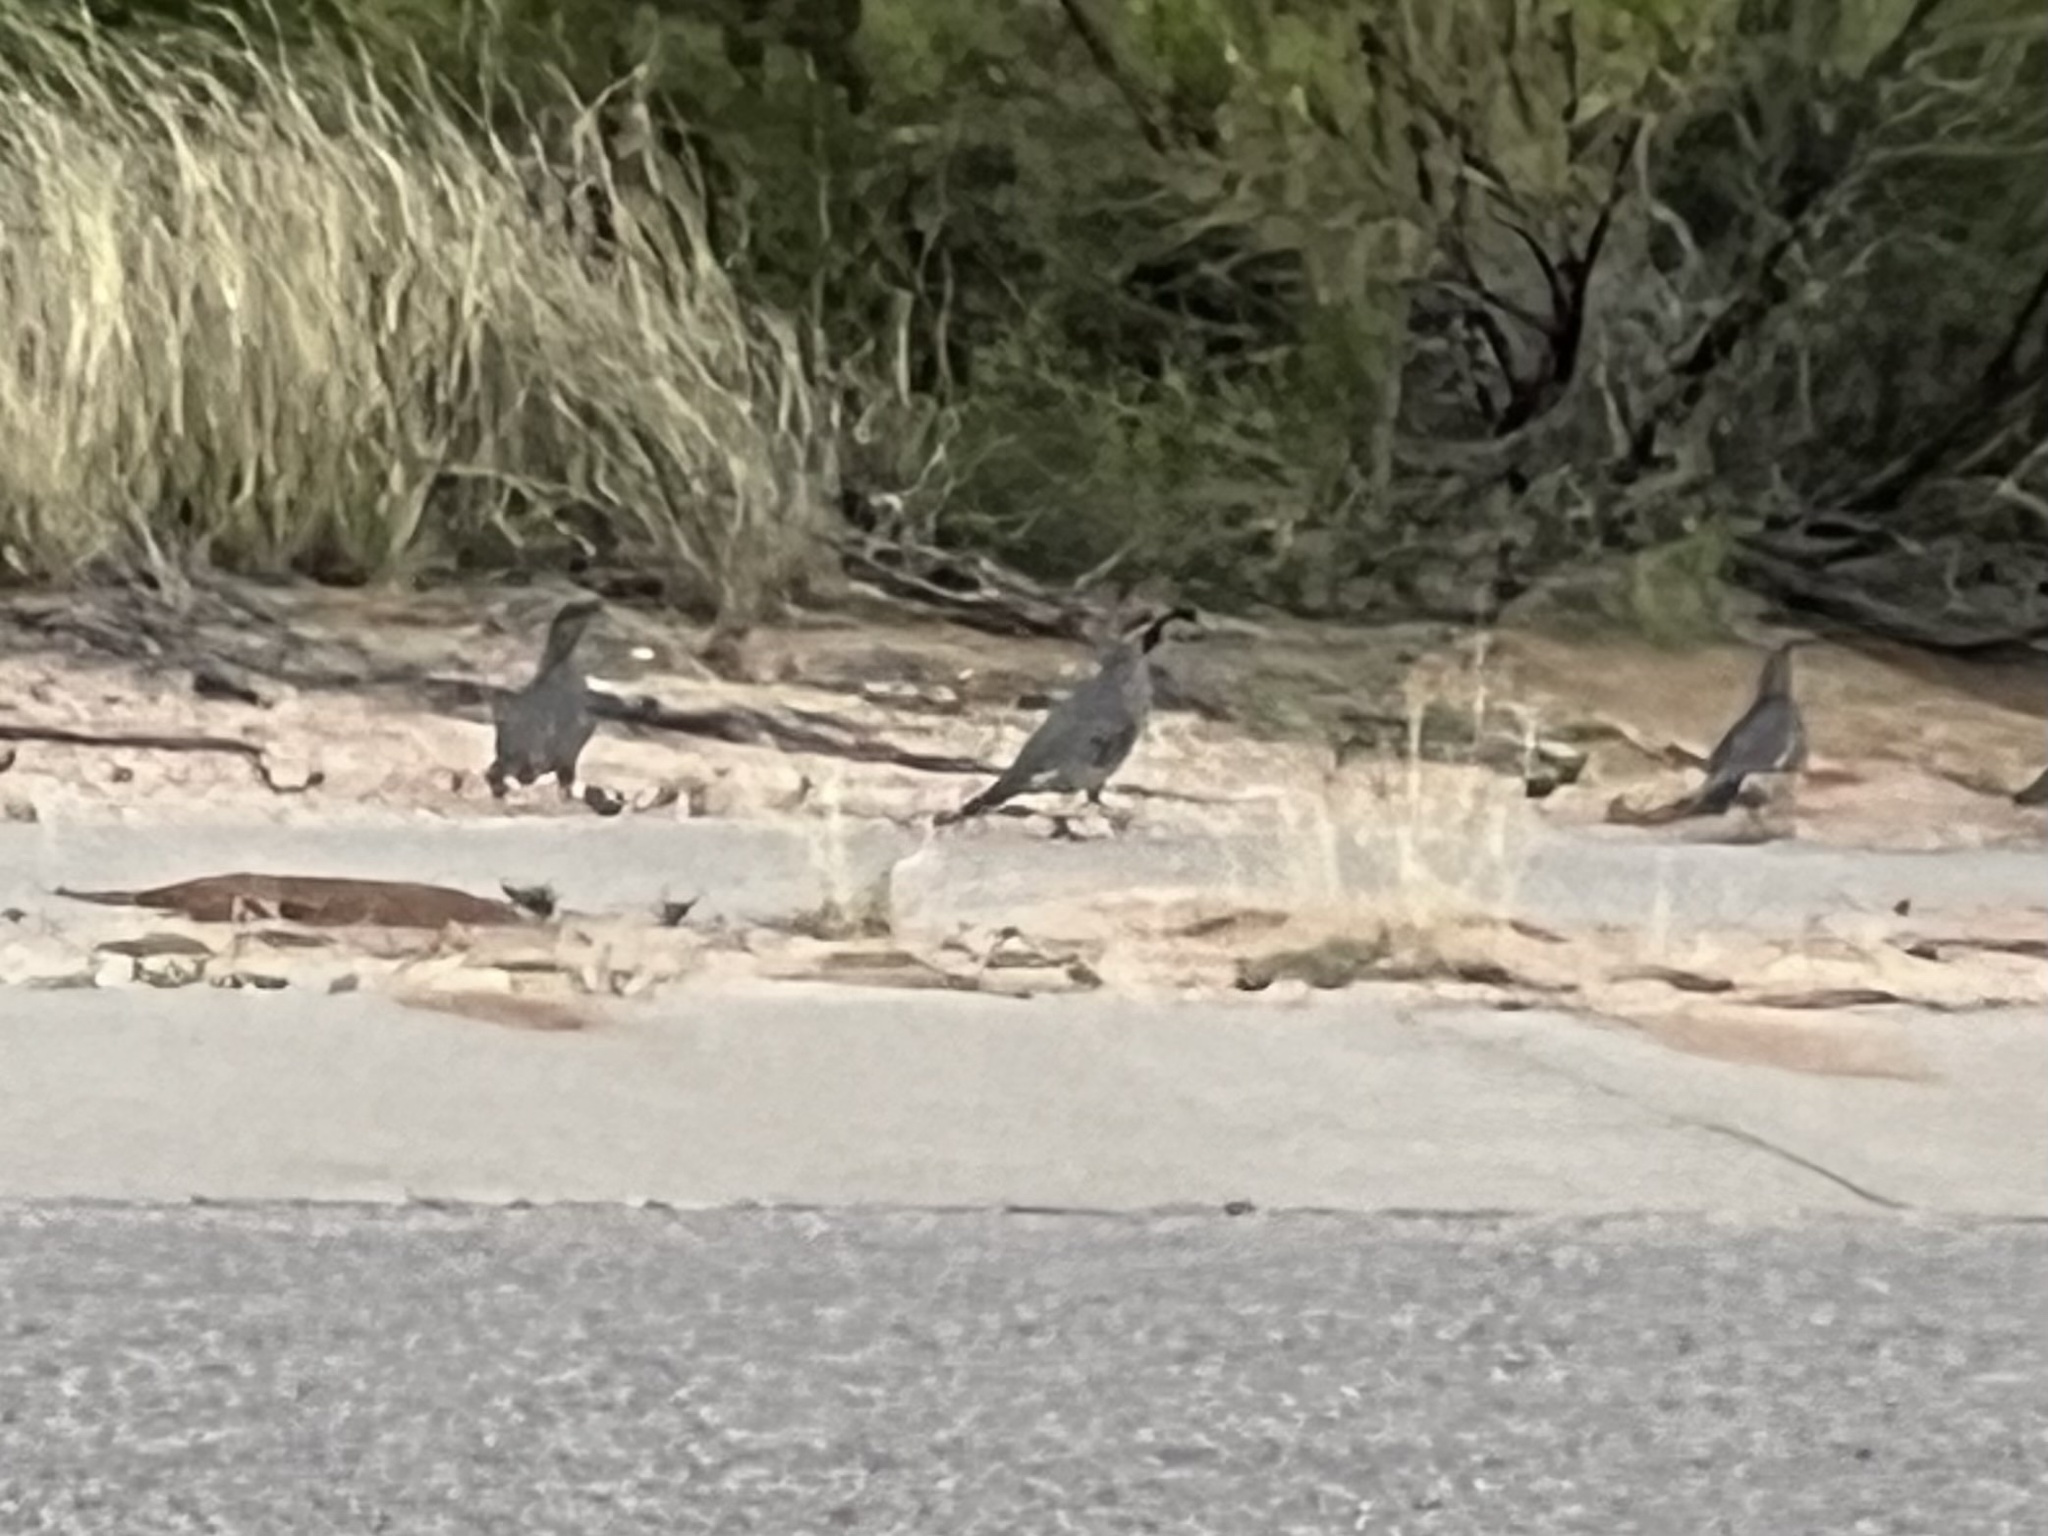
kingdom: Animalia
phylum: Chordata
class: Aves
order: Galliformes
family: Odontophoridae
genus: Callipepla
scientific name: Callipepla gambelii
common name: Gambel's quail
